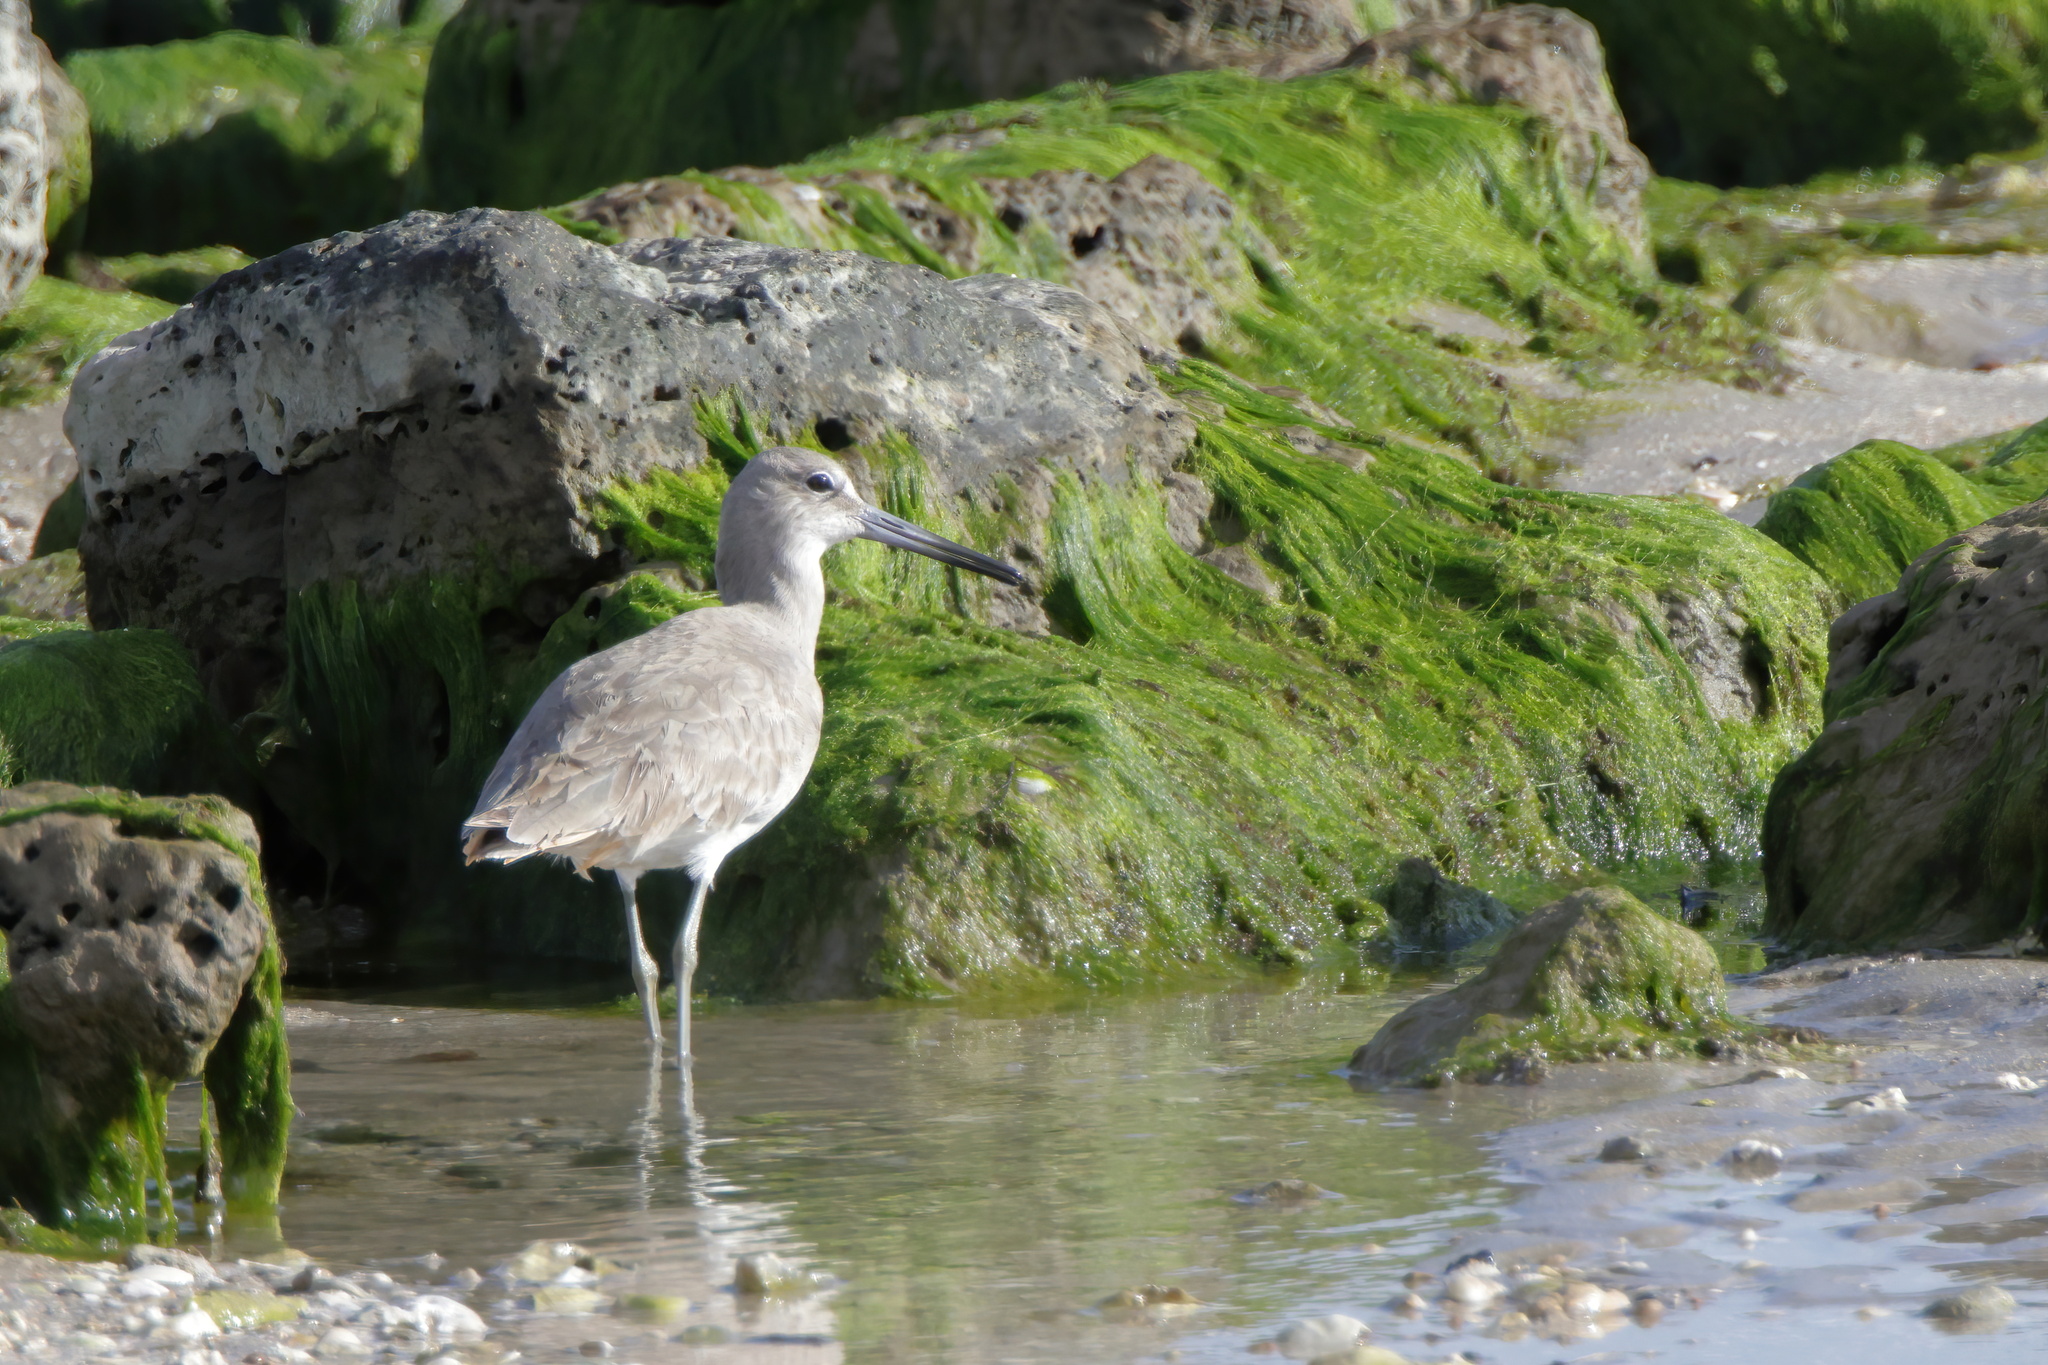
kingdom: Animalia
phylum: Chordata
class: Aves
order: Charadriiformes
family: Scolopacidae
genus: Tringa
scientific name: Tringa semipalmata
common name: Willet
